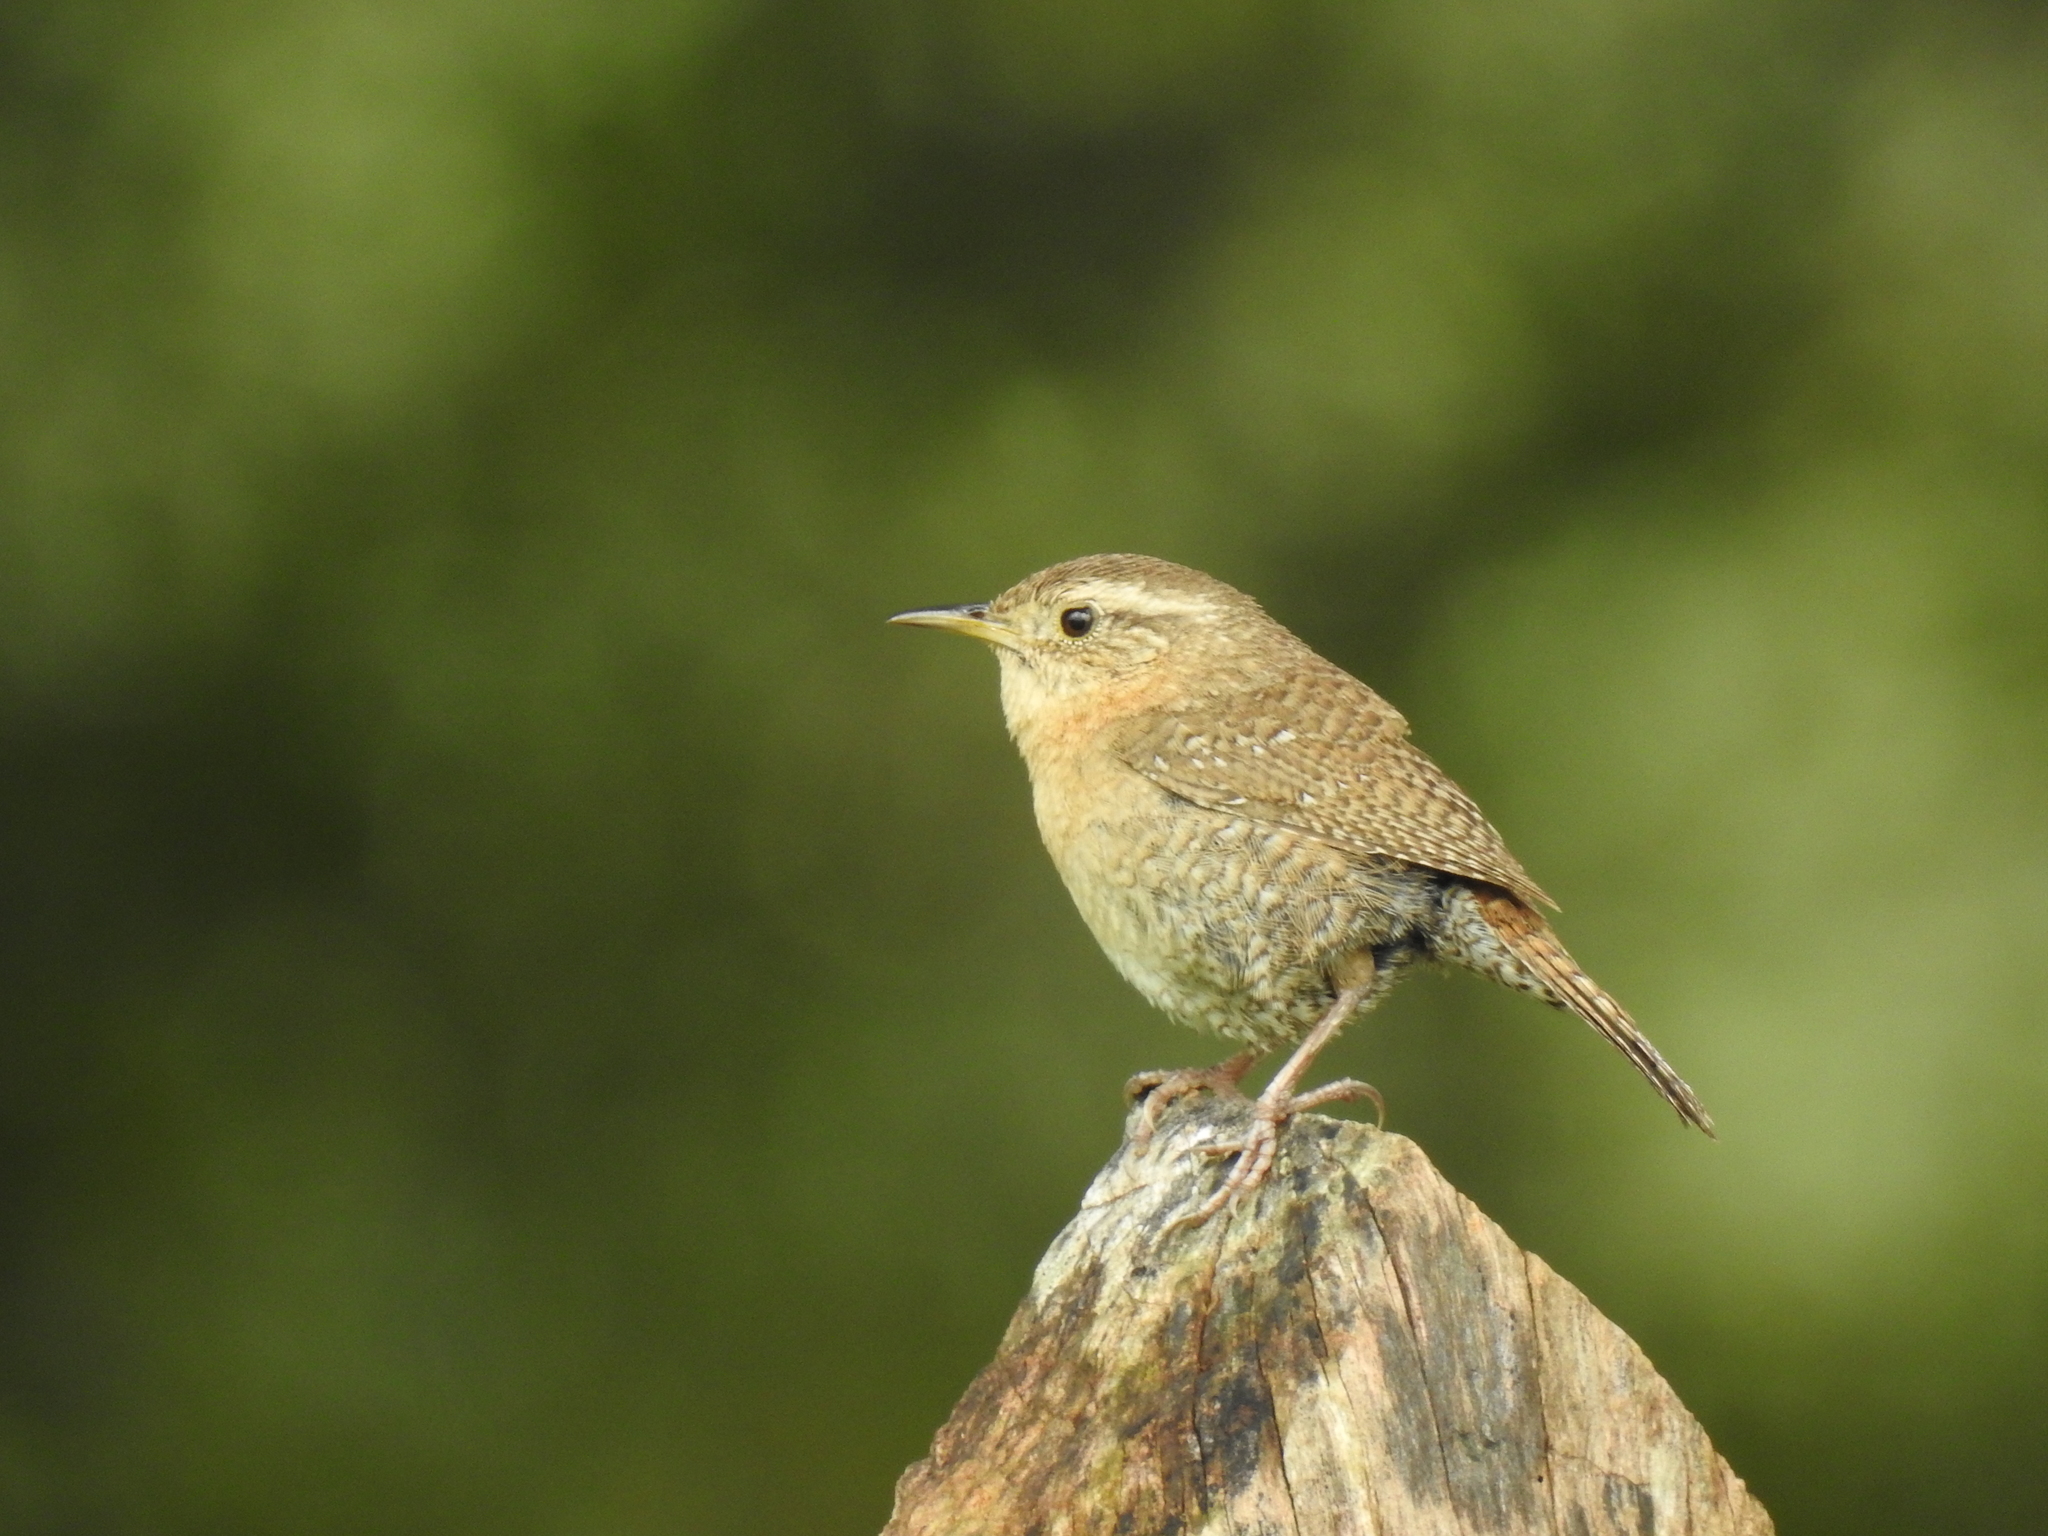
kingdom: Animalia
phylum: Chordata
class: Aves
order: Passeriformes
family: Troglodytidae
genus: Troglodytes
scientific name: Troglodytes aedon
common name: House wren
